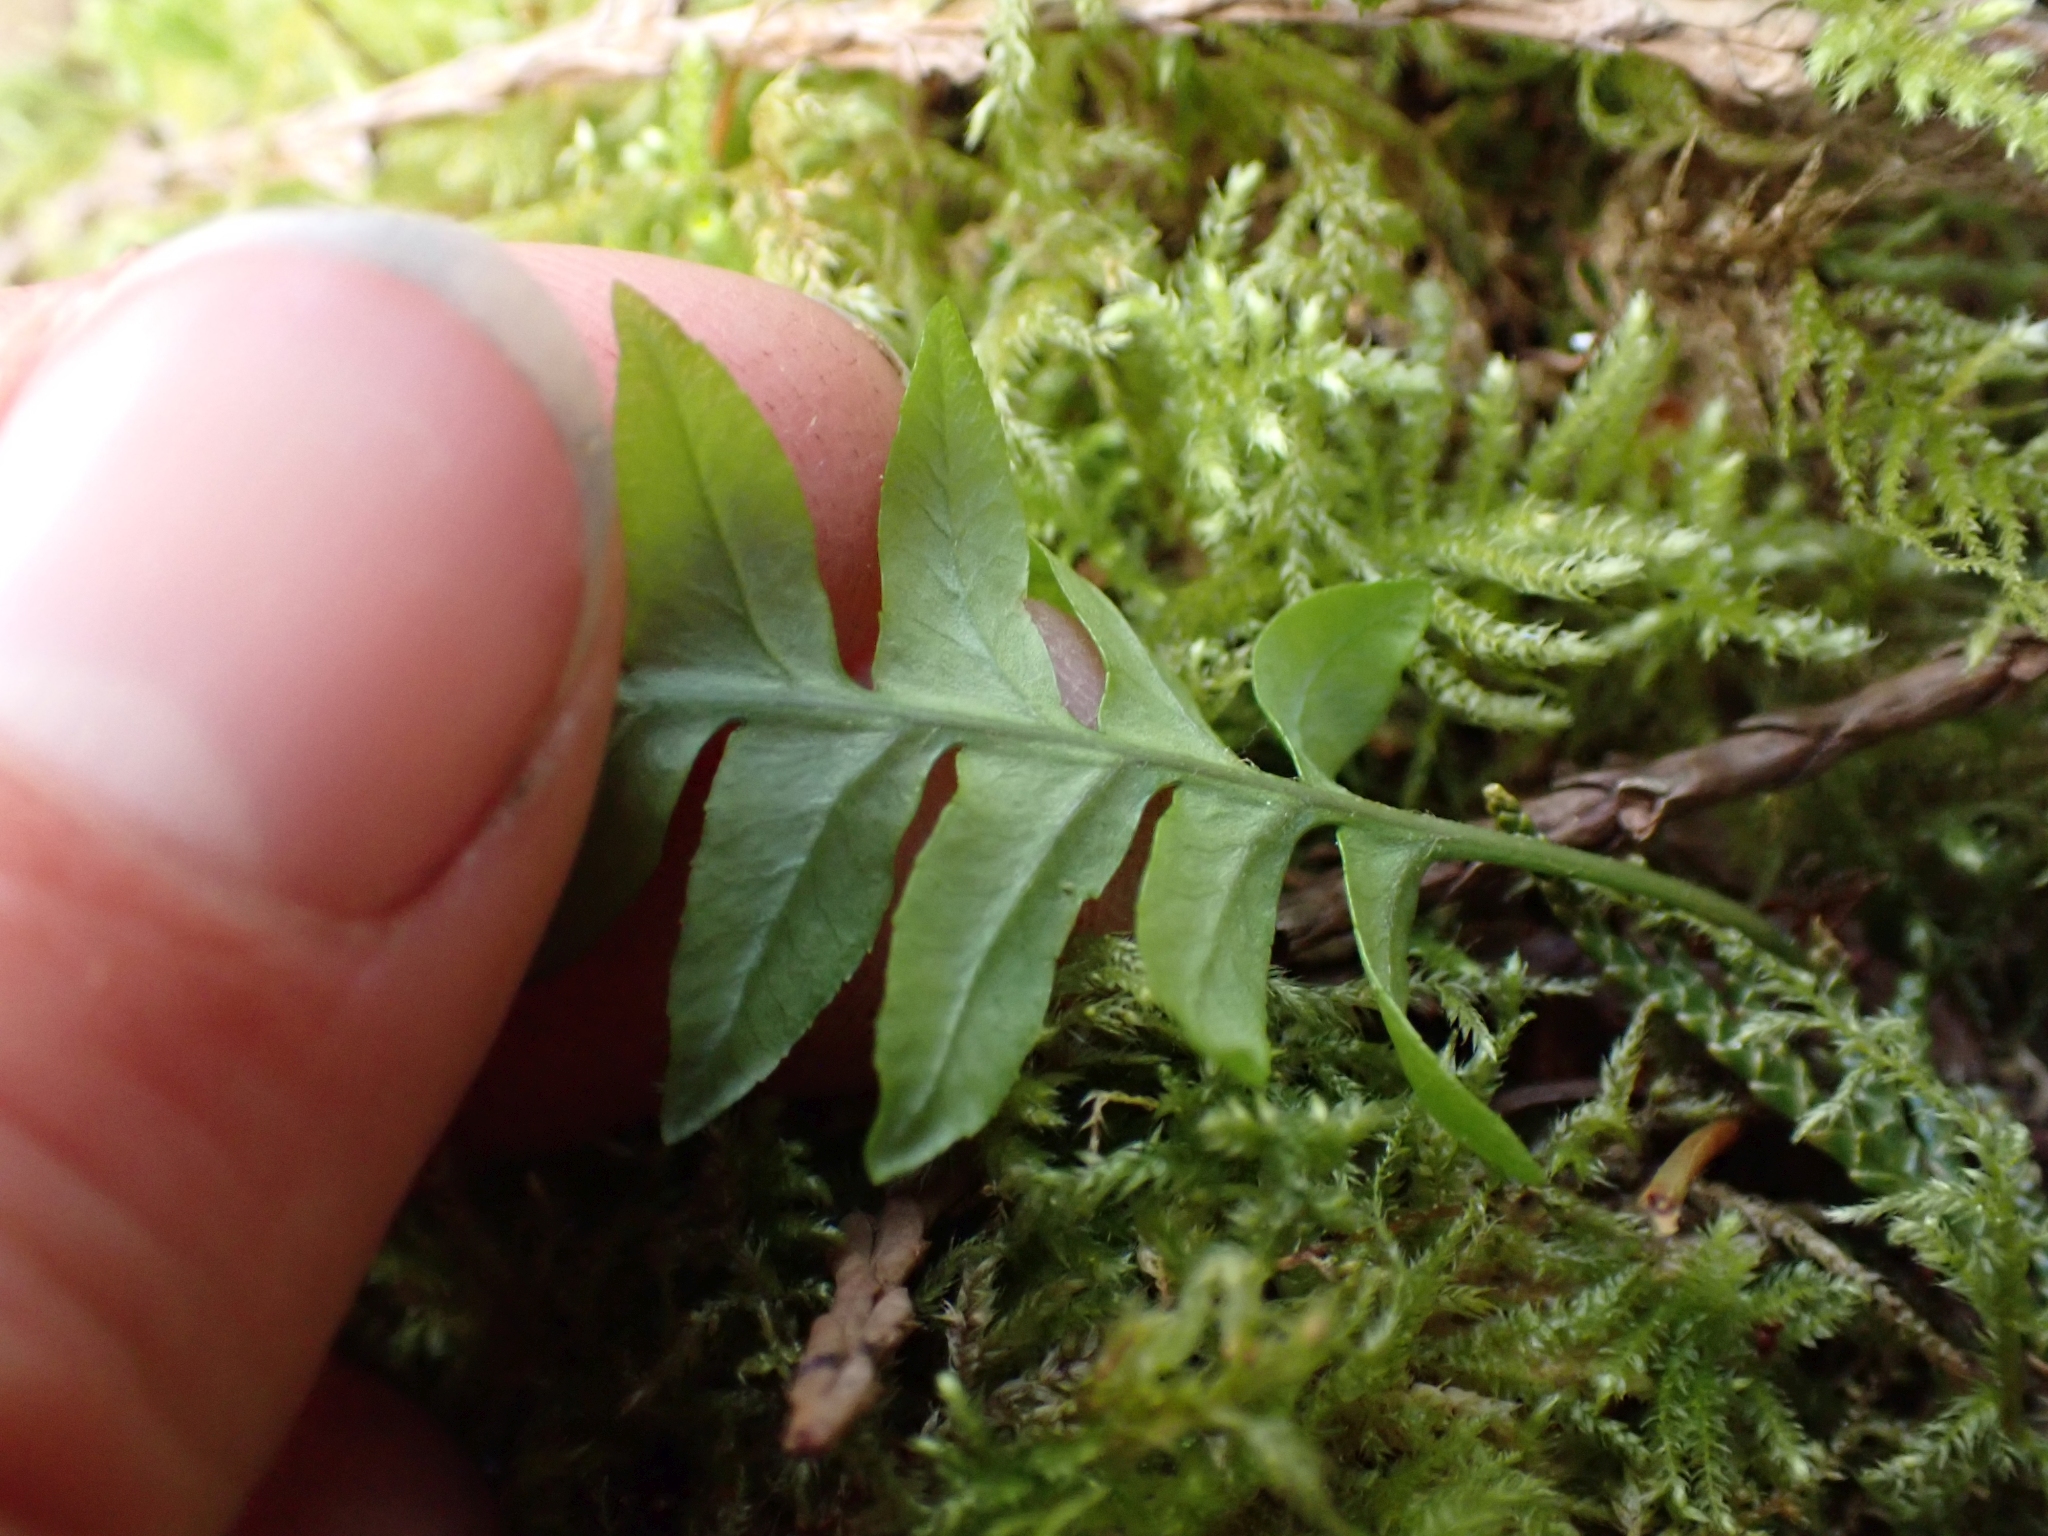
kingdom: Plantae
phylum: Tracheophyta
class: Polypodiopsida
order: Polypodiales
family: Polypodiaceae
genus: Polypodium
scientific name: Polypodium glycyrrhiza
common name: Licorice fern
